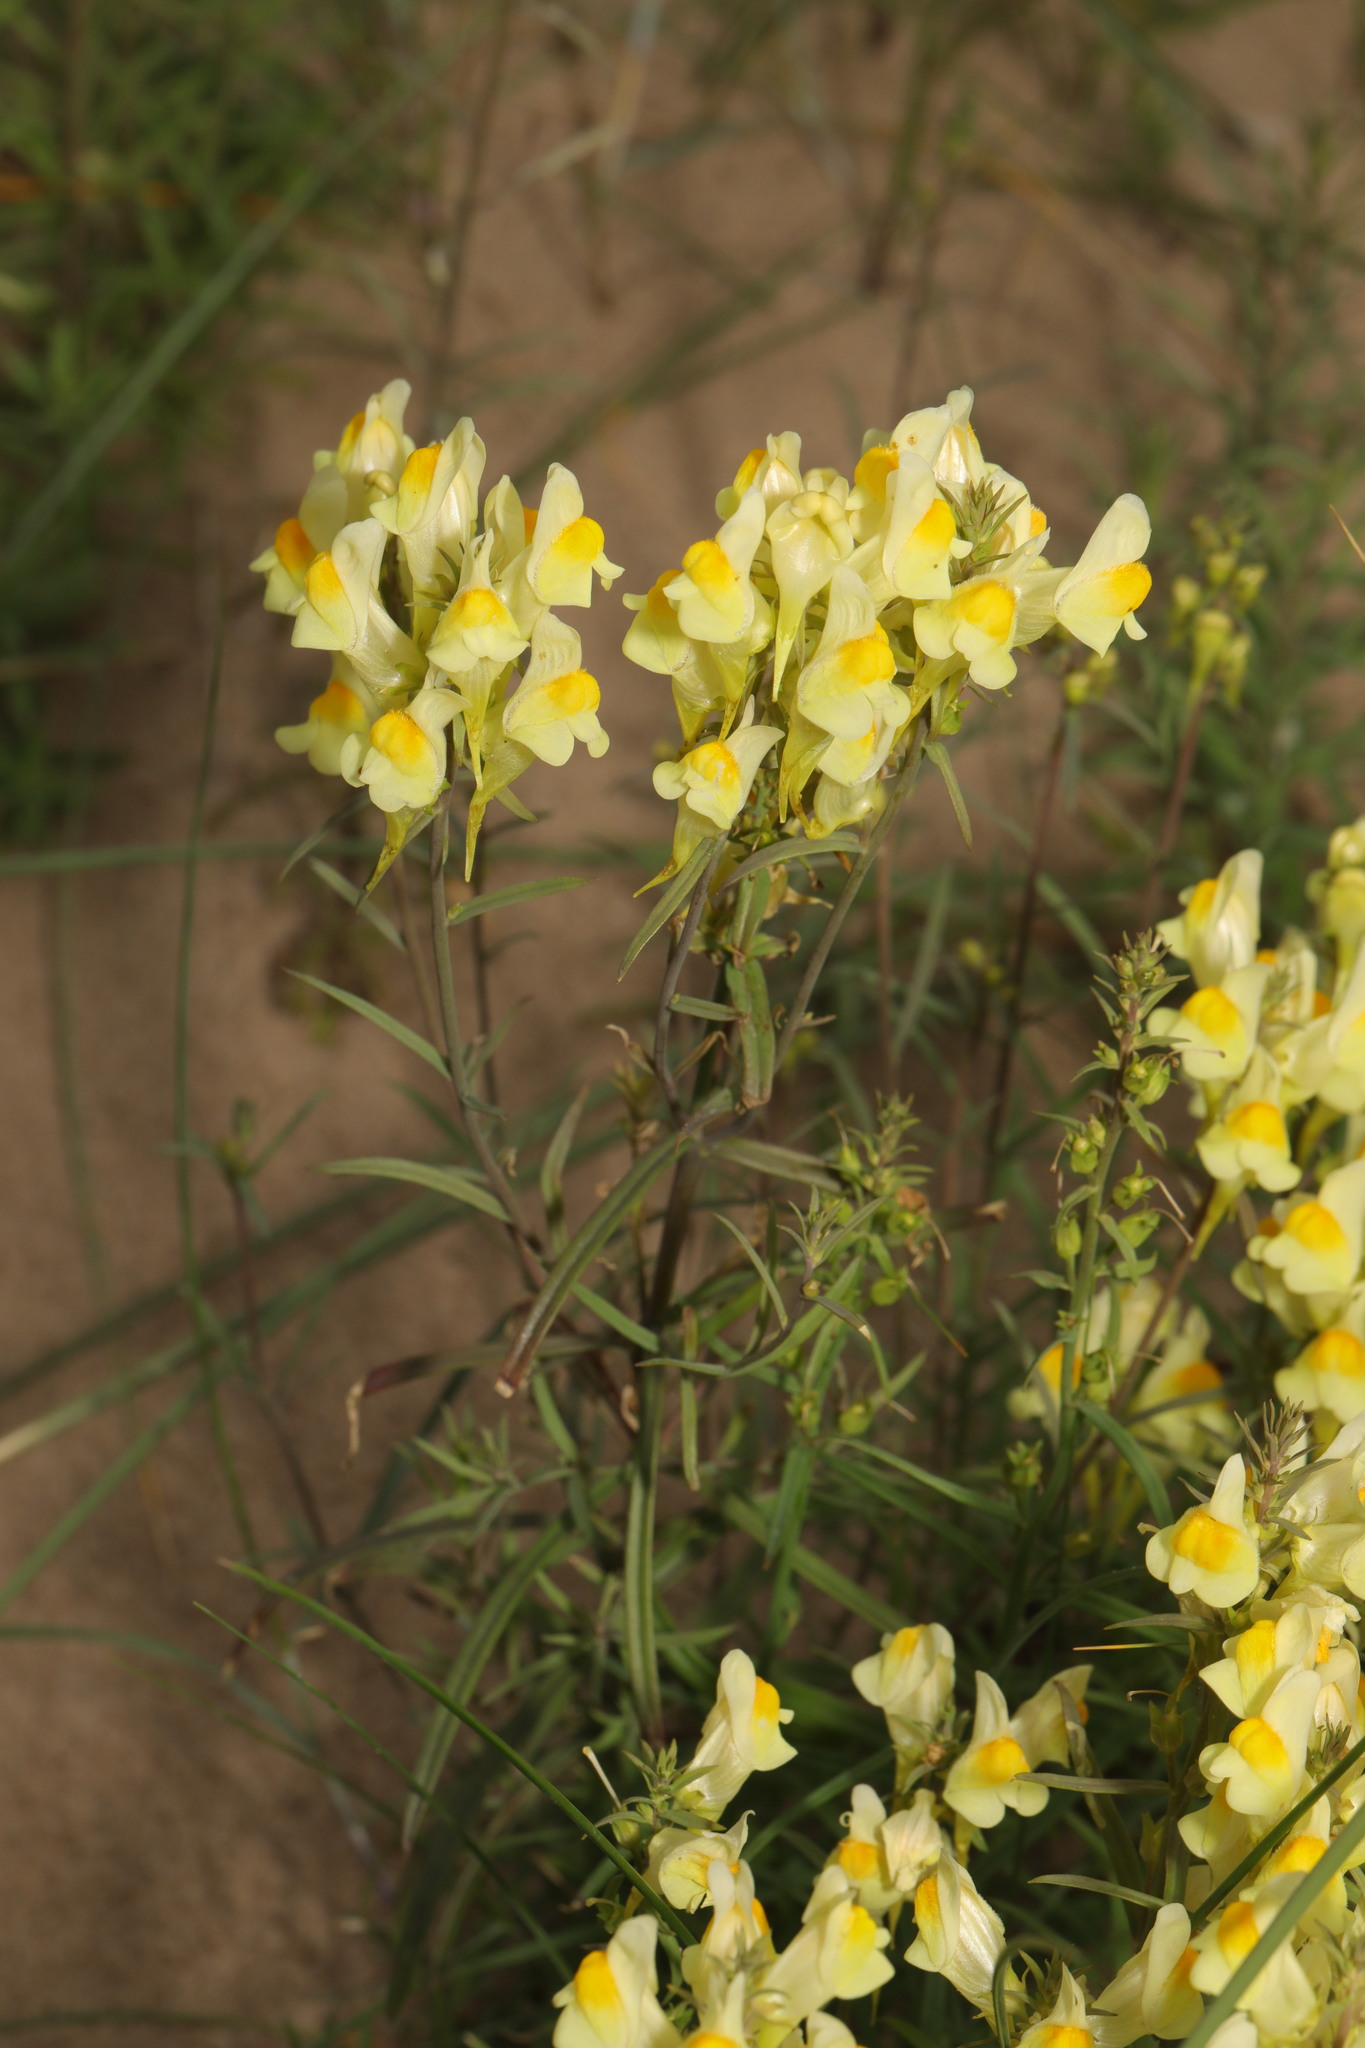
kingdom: Plantae
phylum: Tracheophyta
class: Magnoliopsida
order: Lamiales
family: Plantaginaceae
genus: Linaria
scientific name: Linaria vulgaris
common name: Butter and eggs
